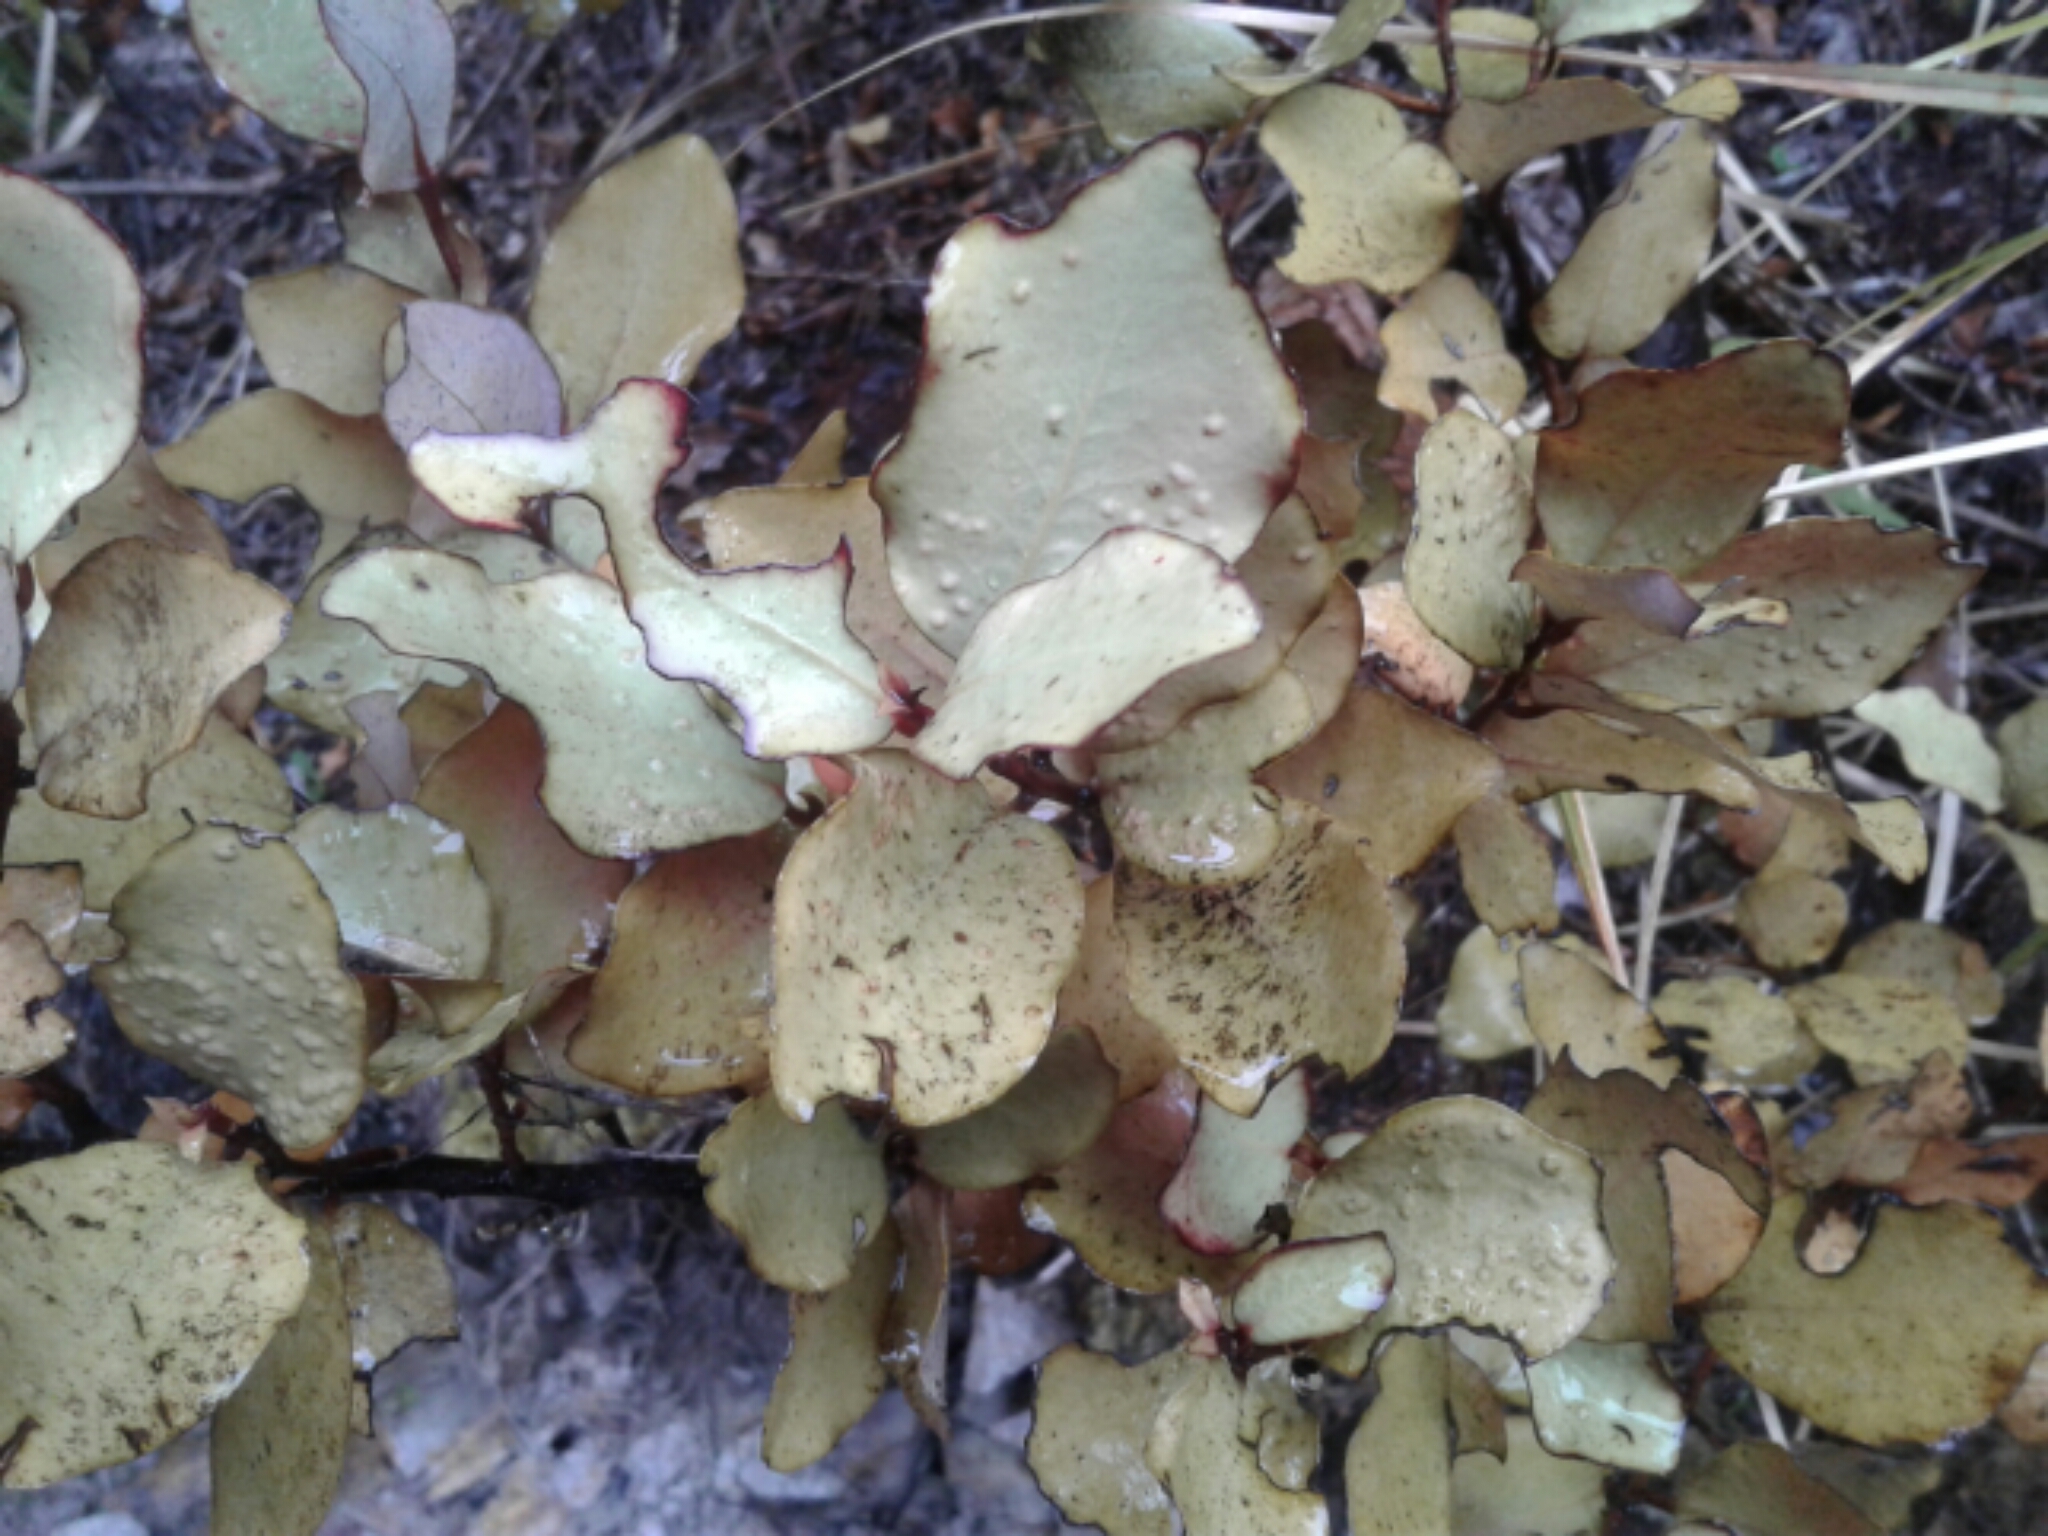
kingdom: Plantae
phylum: Tracheophyta
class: Magnoliopsida
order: Canellales
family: Winteraceae
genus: Pseudowintera
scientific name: Pseudowintera colorata
